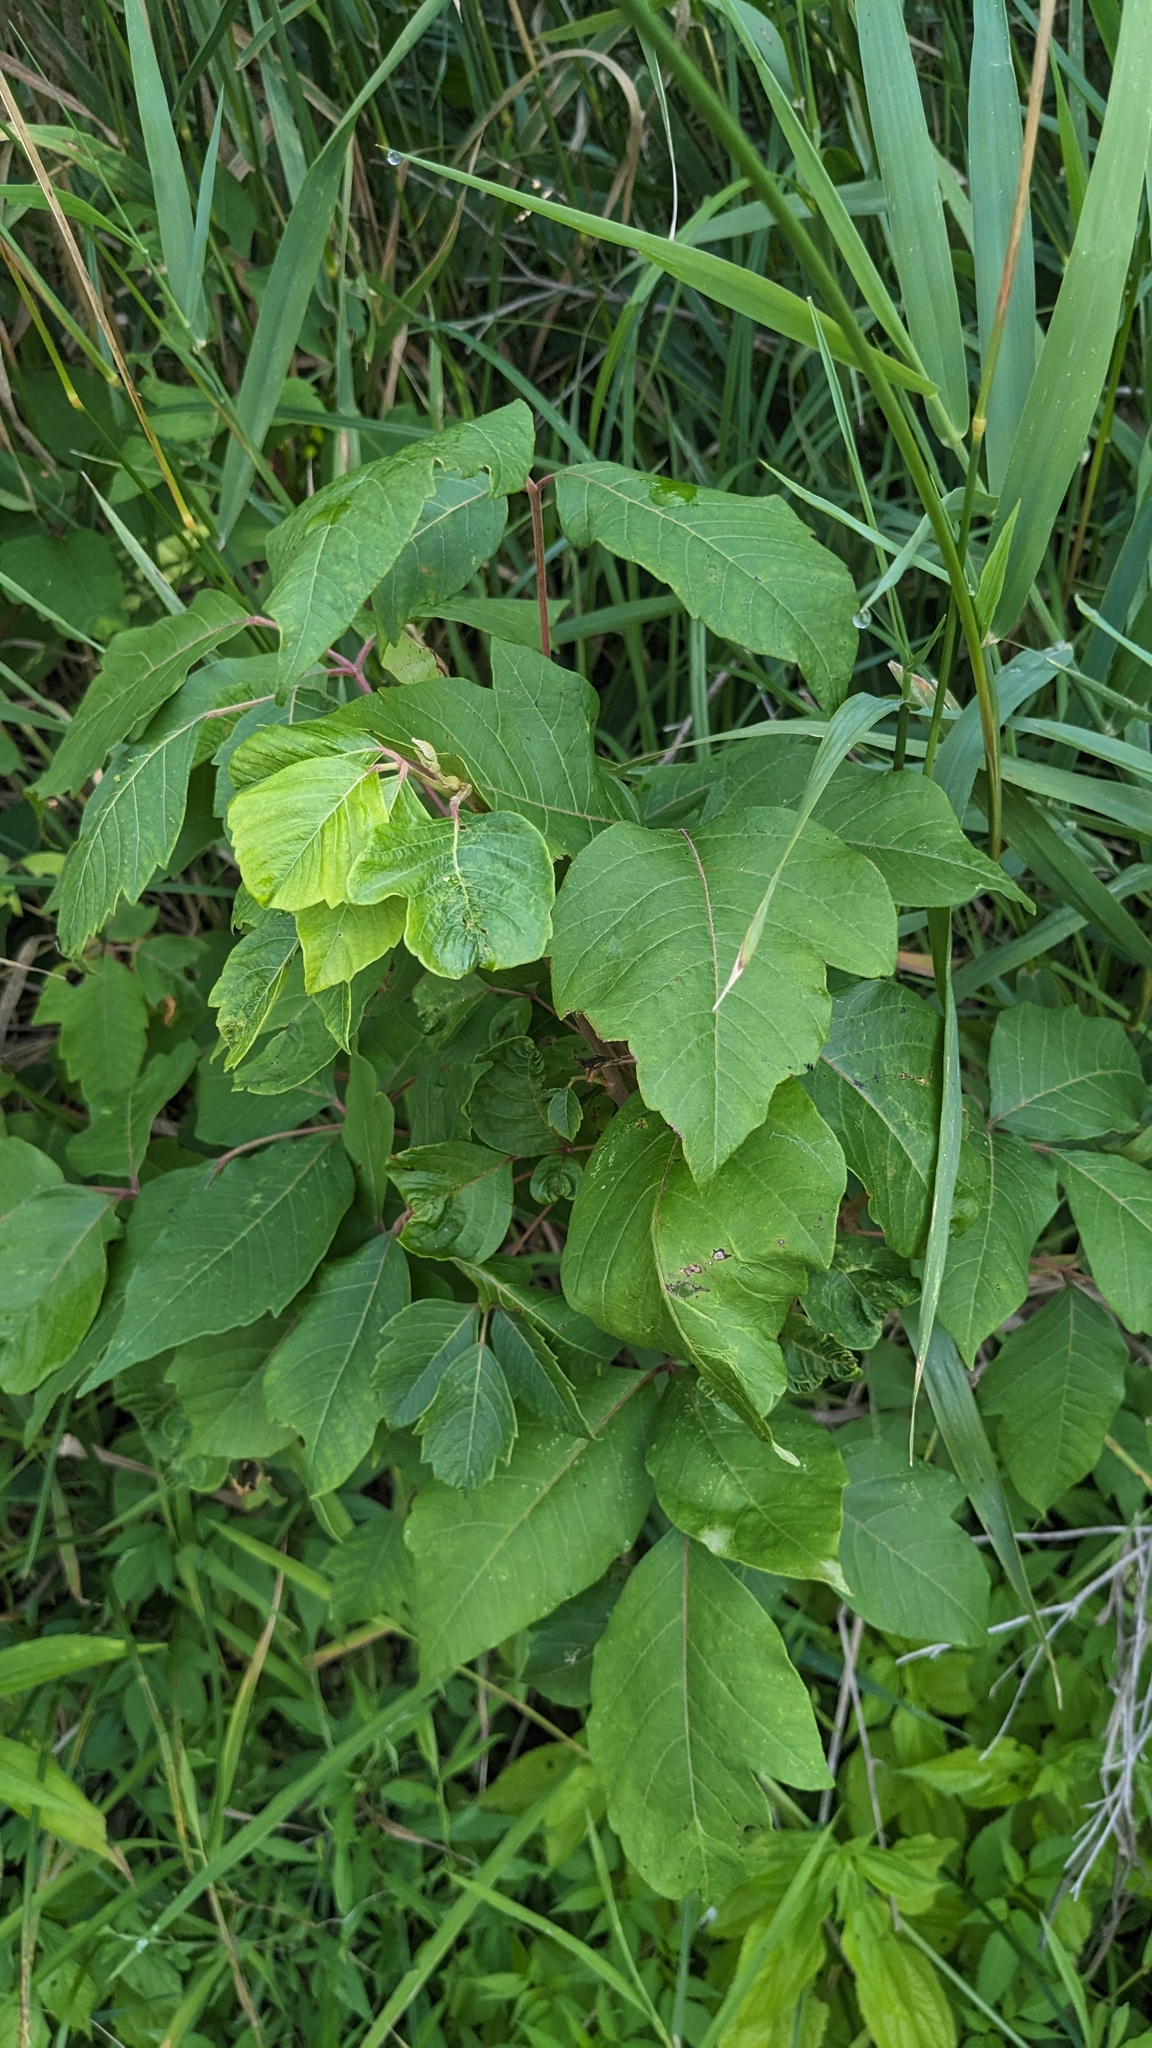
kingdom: Plantae
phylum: Tracheophyta
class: Magnoliopsida
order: Sapindales
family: Anacardiaceae
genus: Toxicodendron
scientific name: Toxicodendron radicans
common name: Poison ivy
